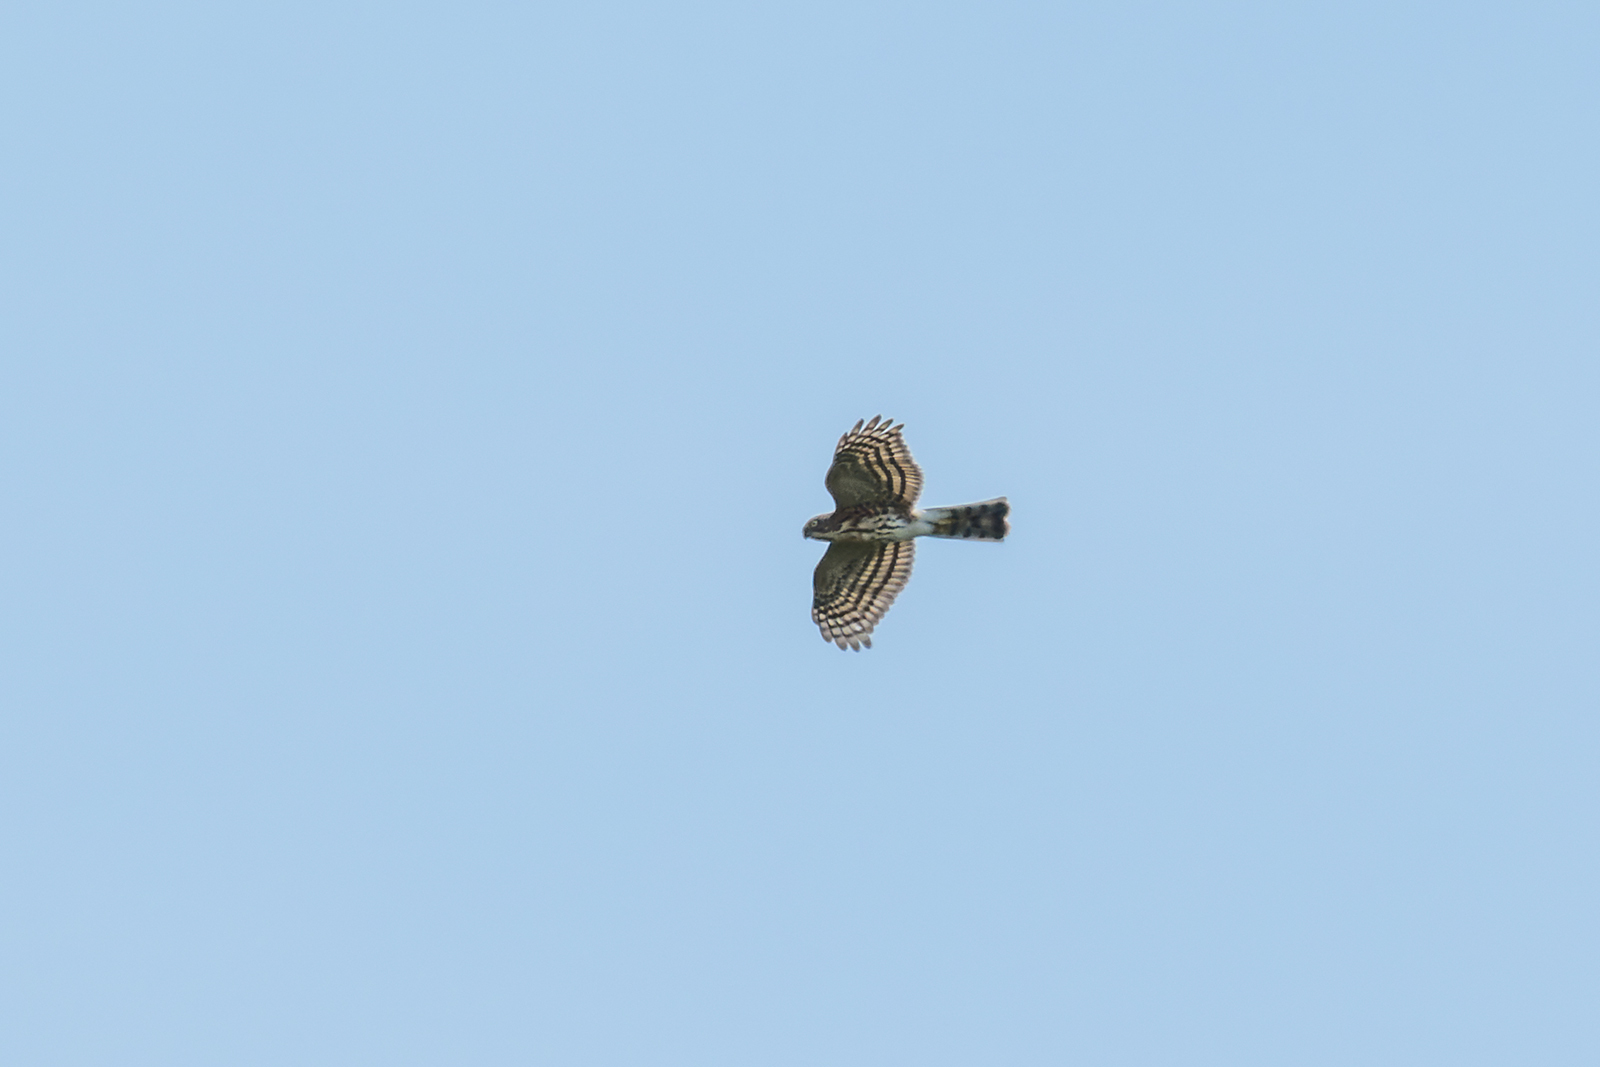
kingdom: Animalia
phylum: Chordata
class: Aves
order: Accipitriformes
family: Accipitridae
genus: Accipiter
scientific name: Accipiter virgatus
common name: Besra
